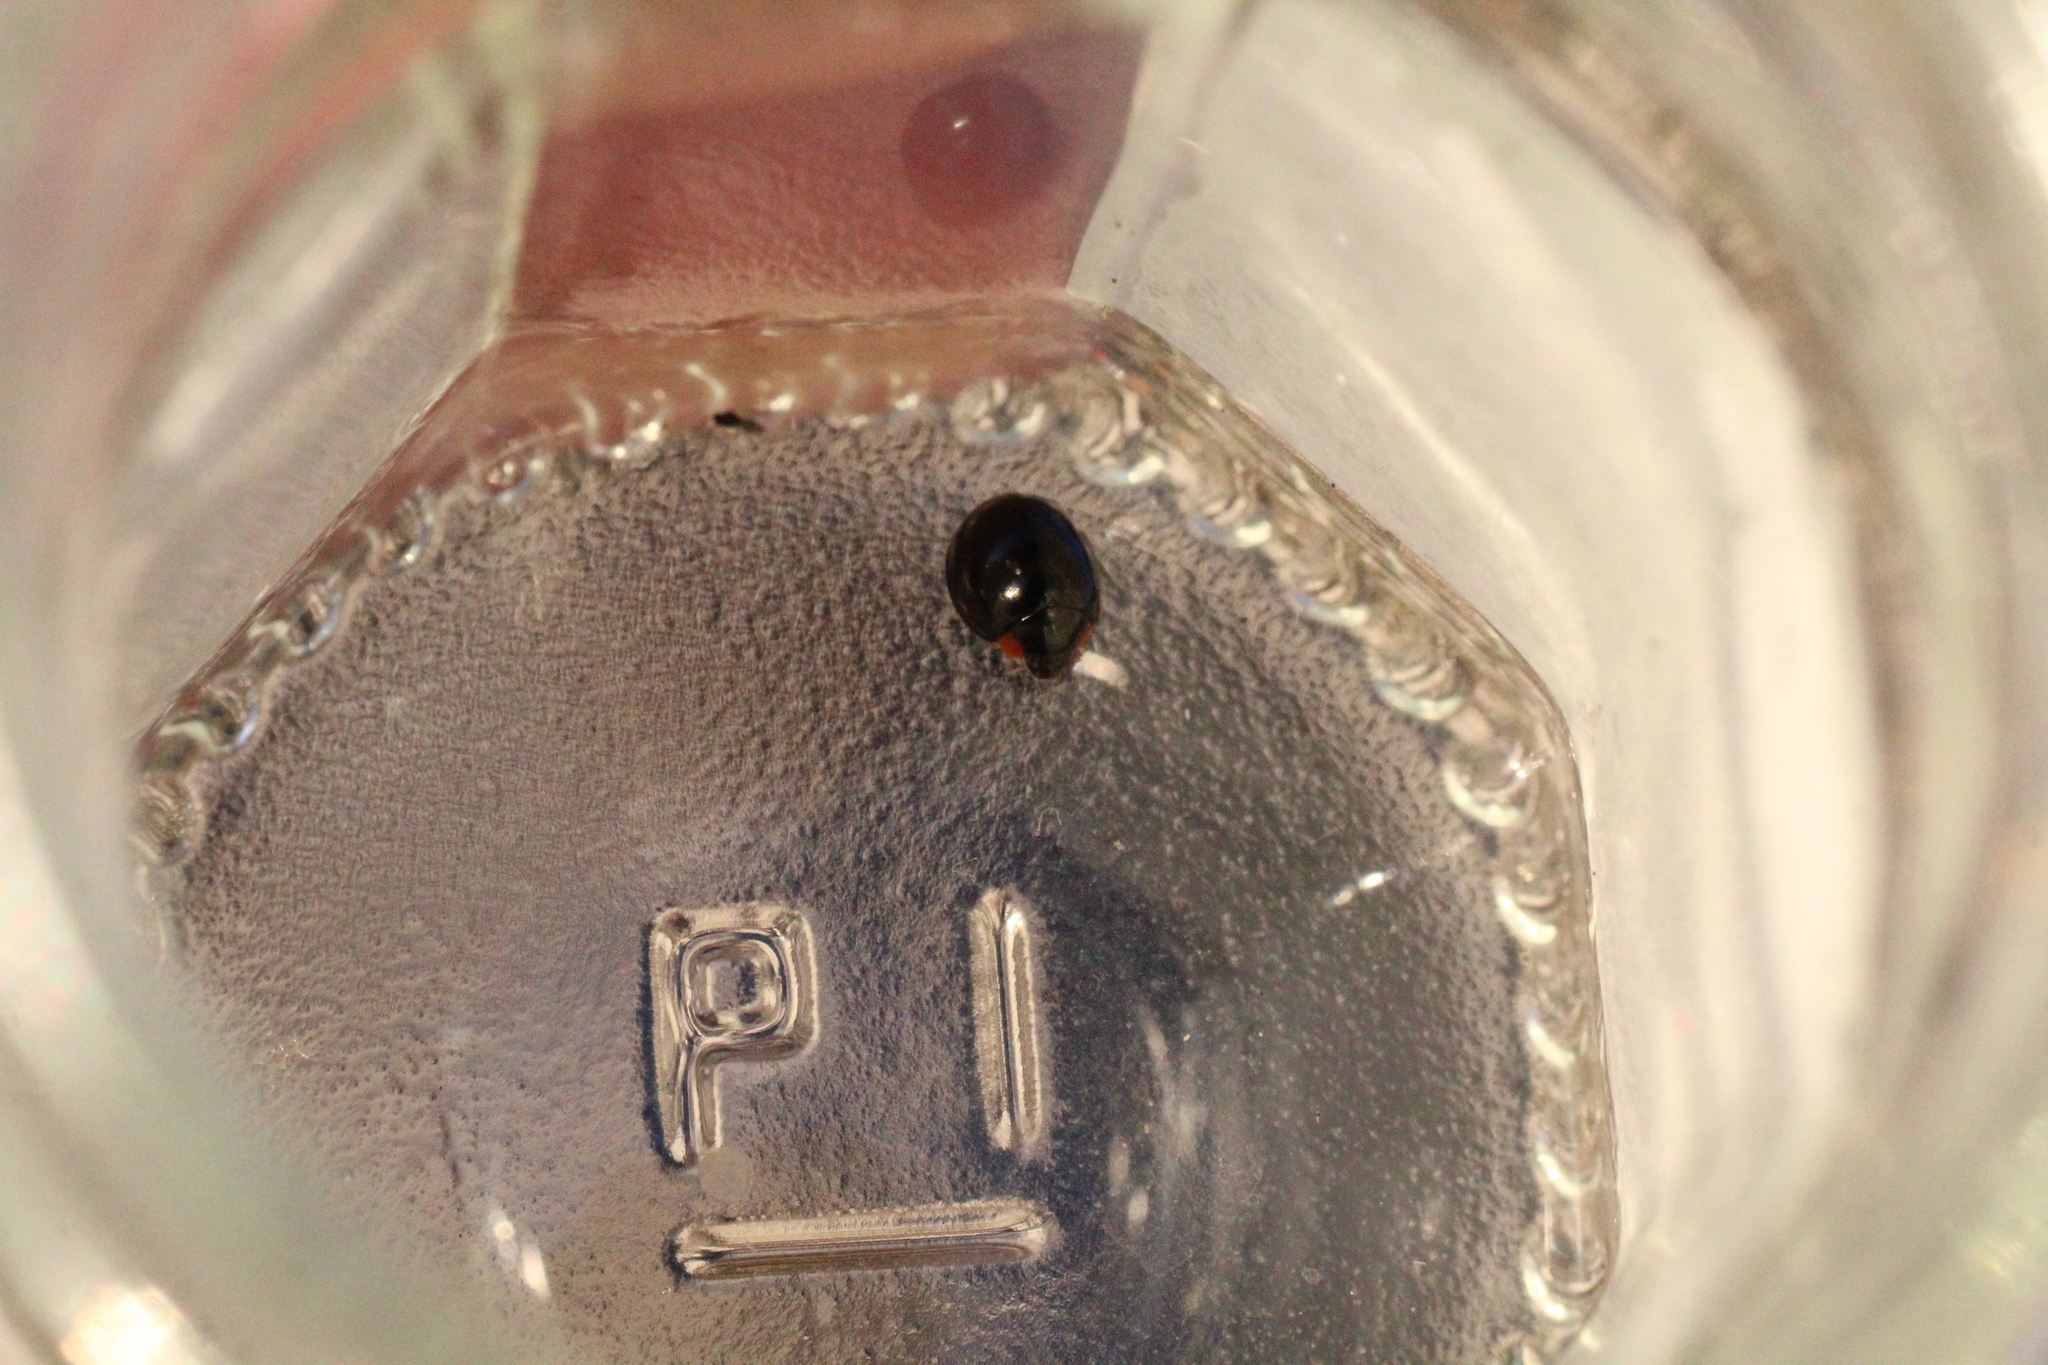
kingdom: Animalia
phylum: Arthropoda
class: Insecta
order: Coleoptera
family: Coccinellidae
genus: Parexochomus
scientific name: Parexochomus nigromaculatus
